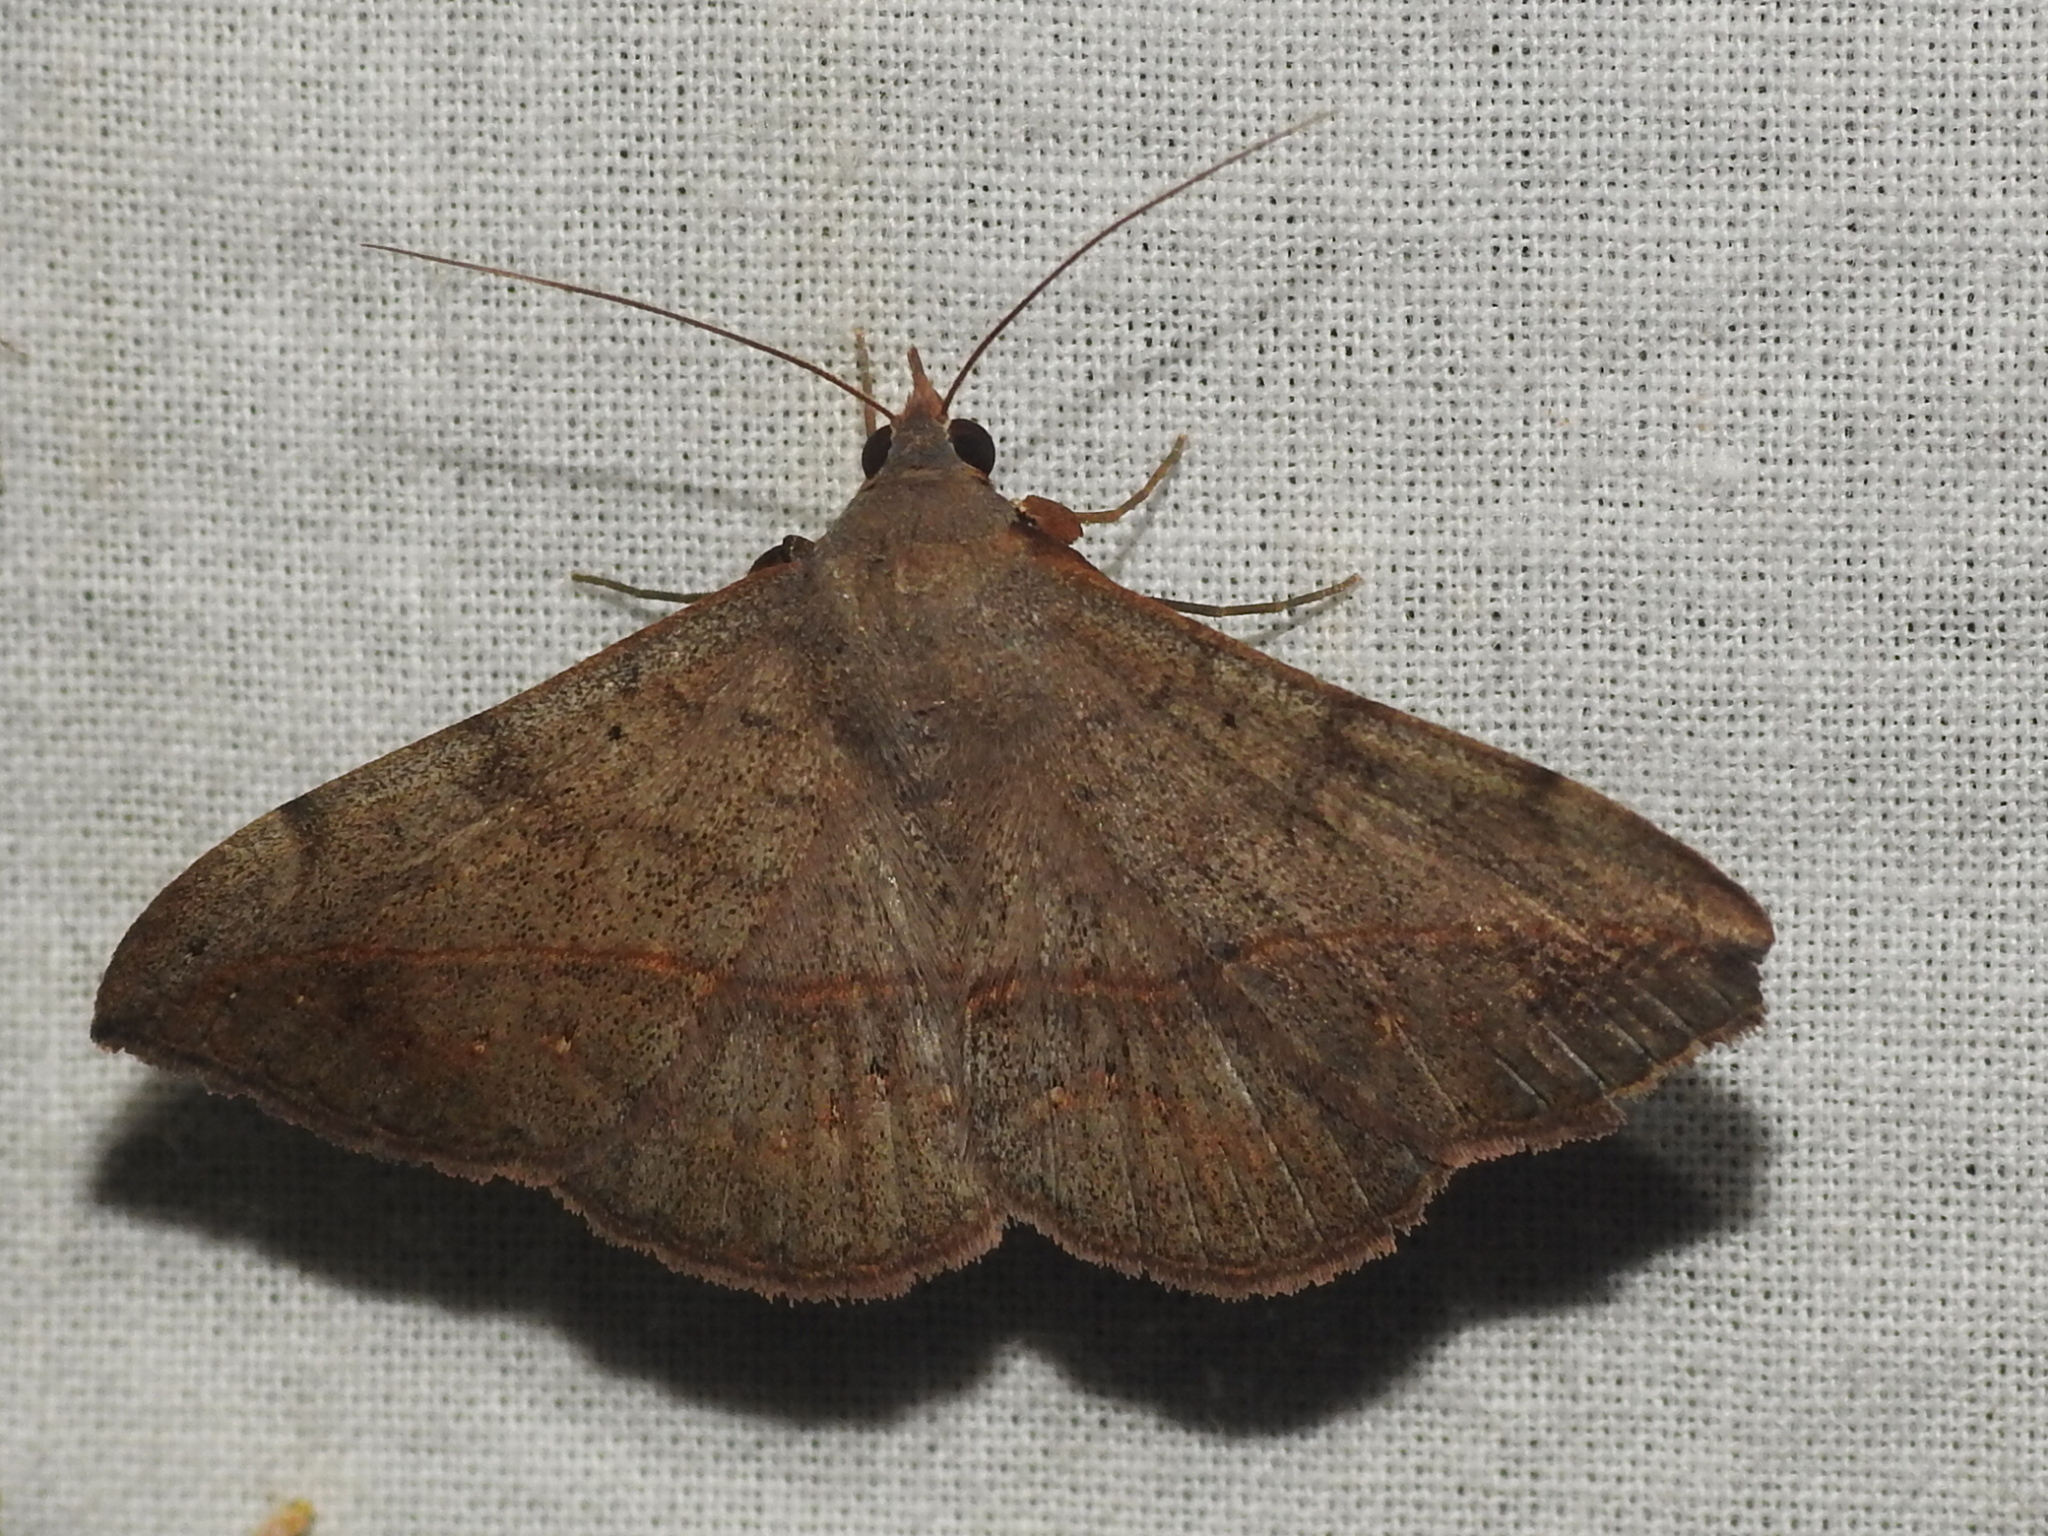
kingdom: Animalia
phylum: Arthropoda
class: Insecta
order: Lepidoptera
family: Erebidae
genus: Anticarsia
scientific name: Anticarsia gemmatalis
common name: Cutworm moth
